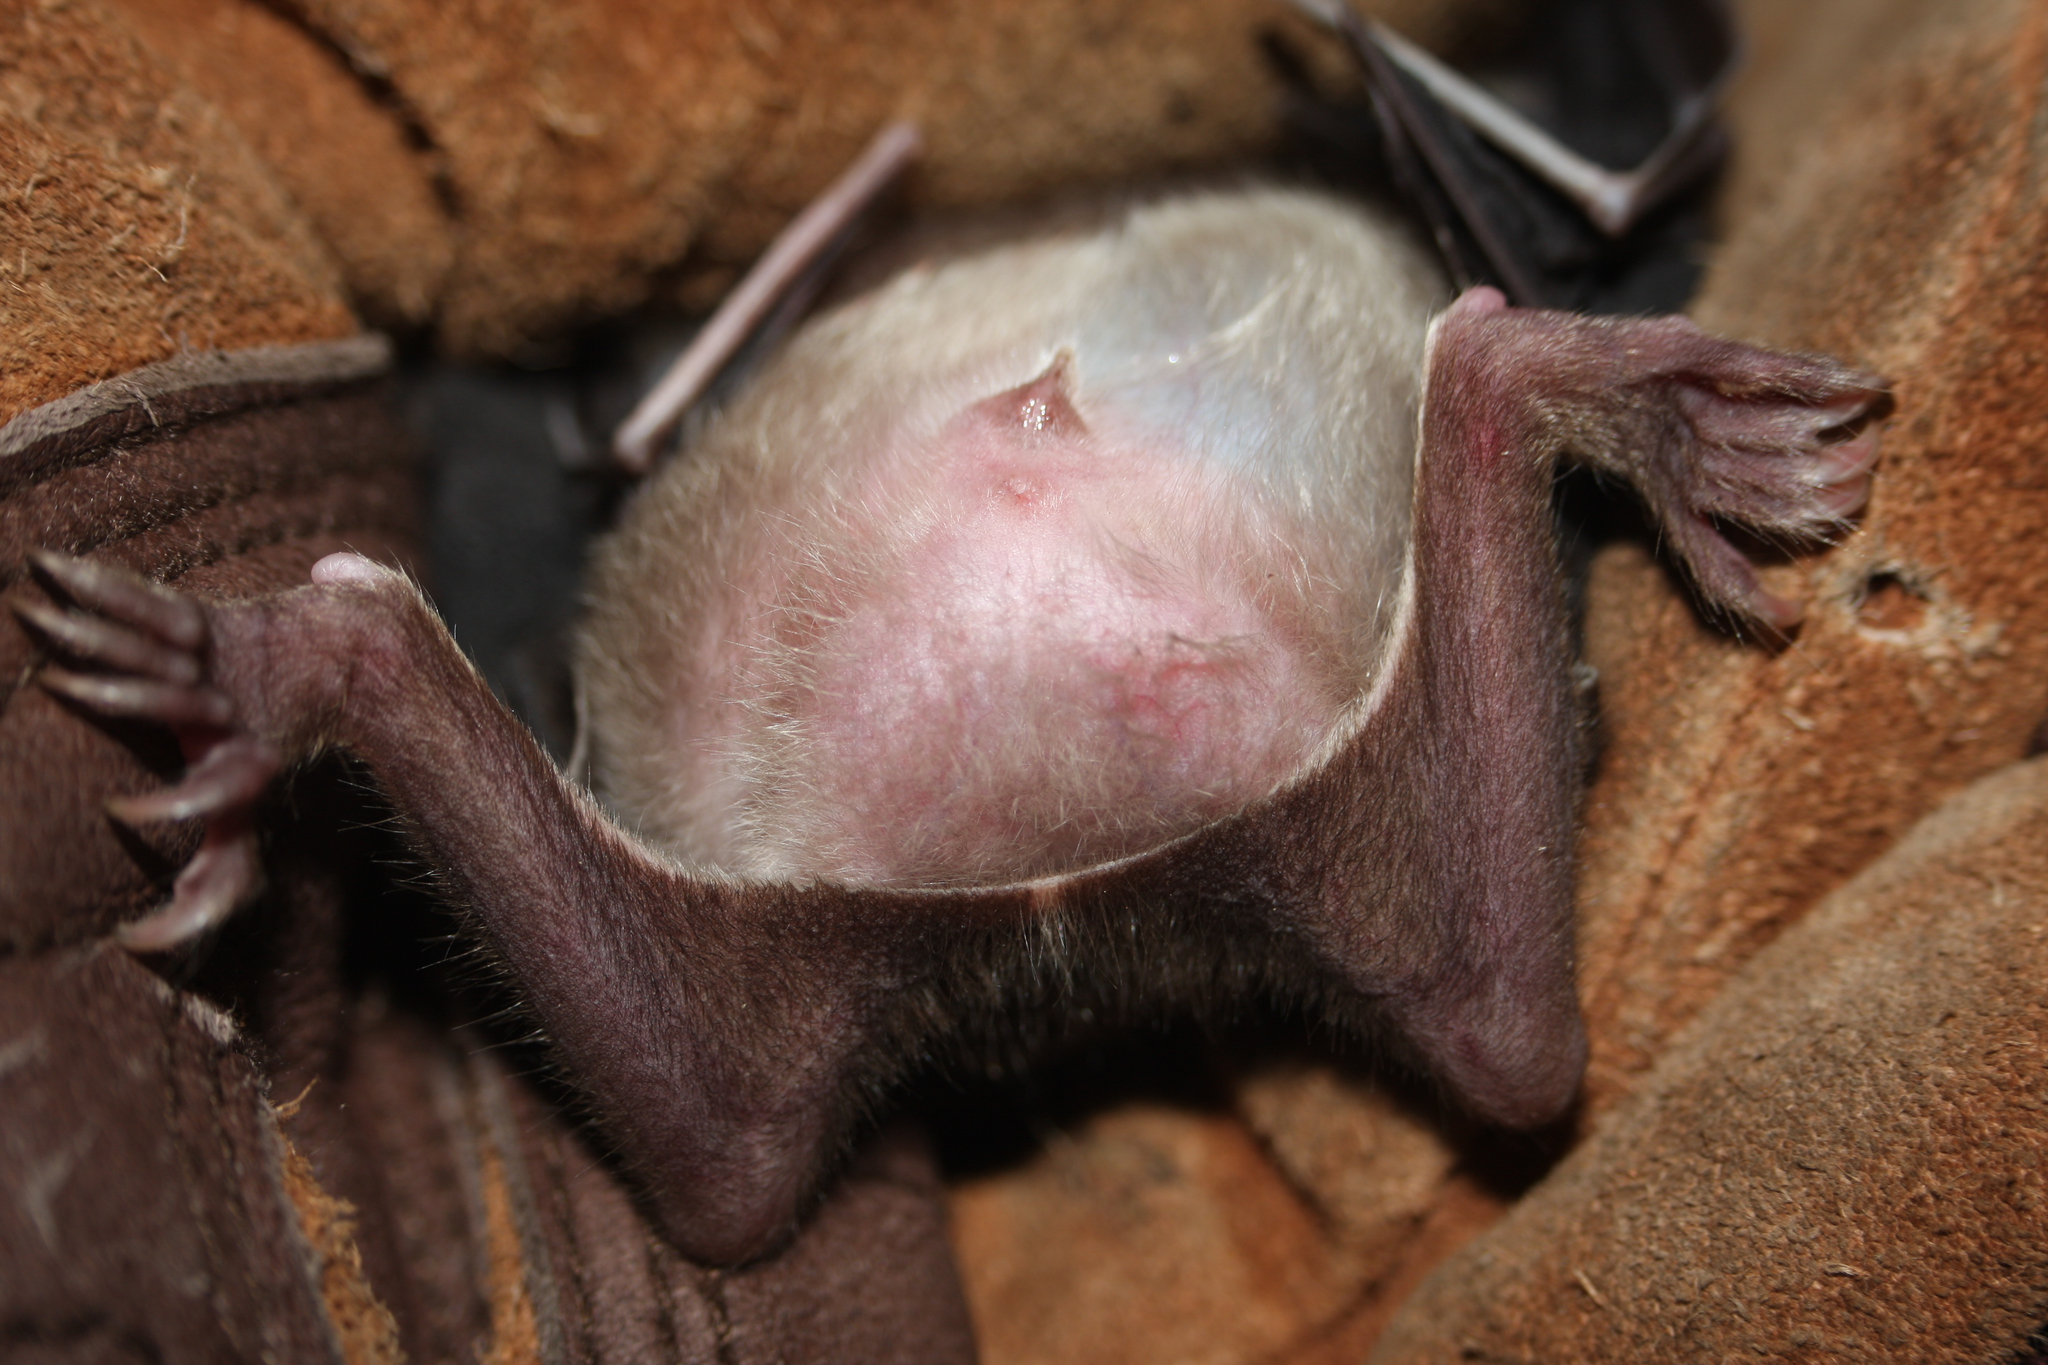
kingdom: Animalia
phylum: Chordata
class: Mammalia
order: Chiroptera
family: Phyllostomidae
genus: Desmodus
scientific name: Desmodus rotundus
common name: Common vampire bat
